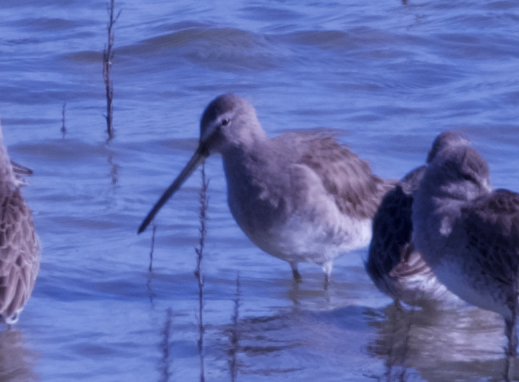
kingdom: Animalia
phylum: Chordata
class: Aves
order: Charadriiformes
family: Scolopacidae
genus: Limnodromus
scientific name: Limnodromus scolopaceus
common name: Long-billed dowitcher
